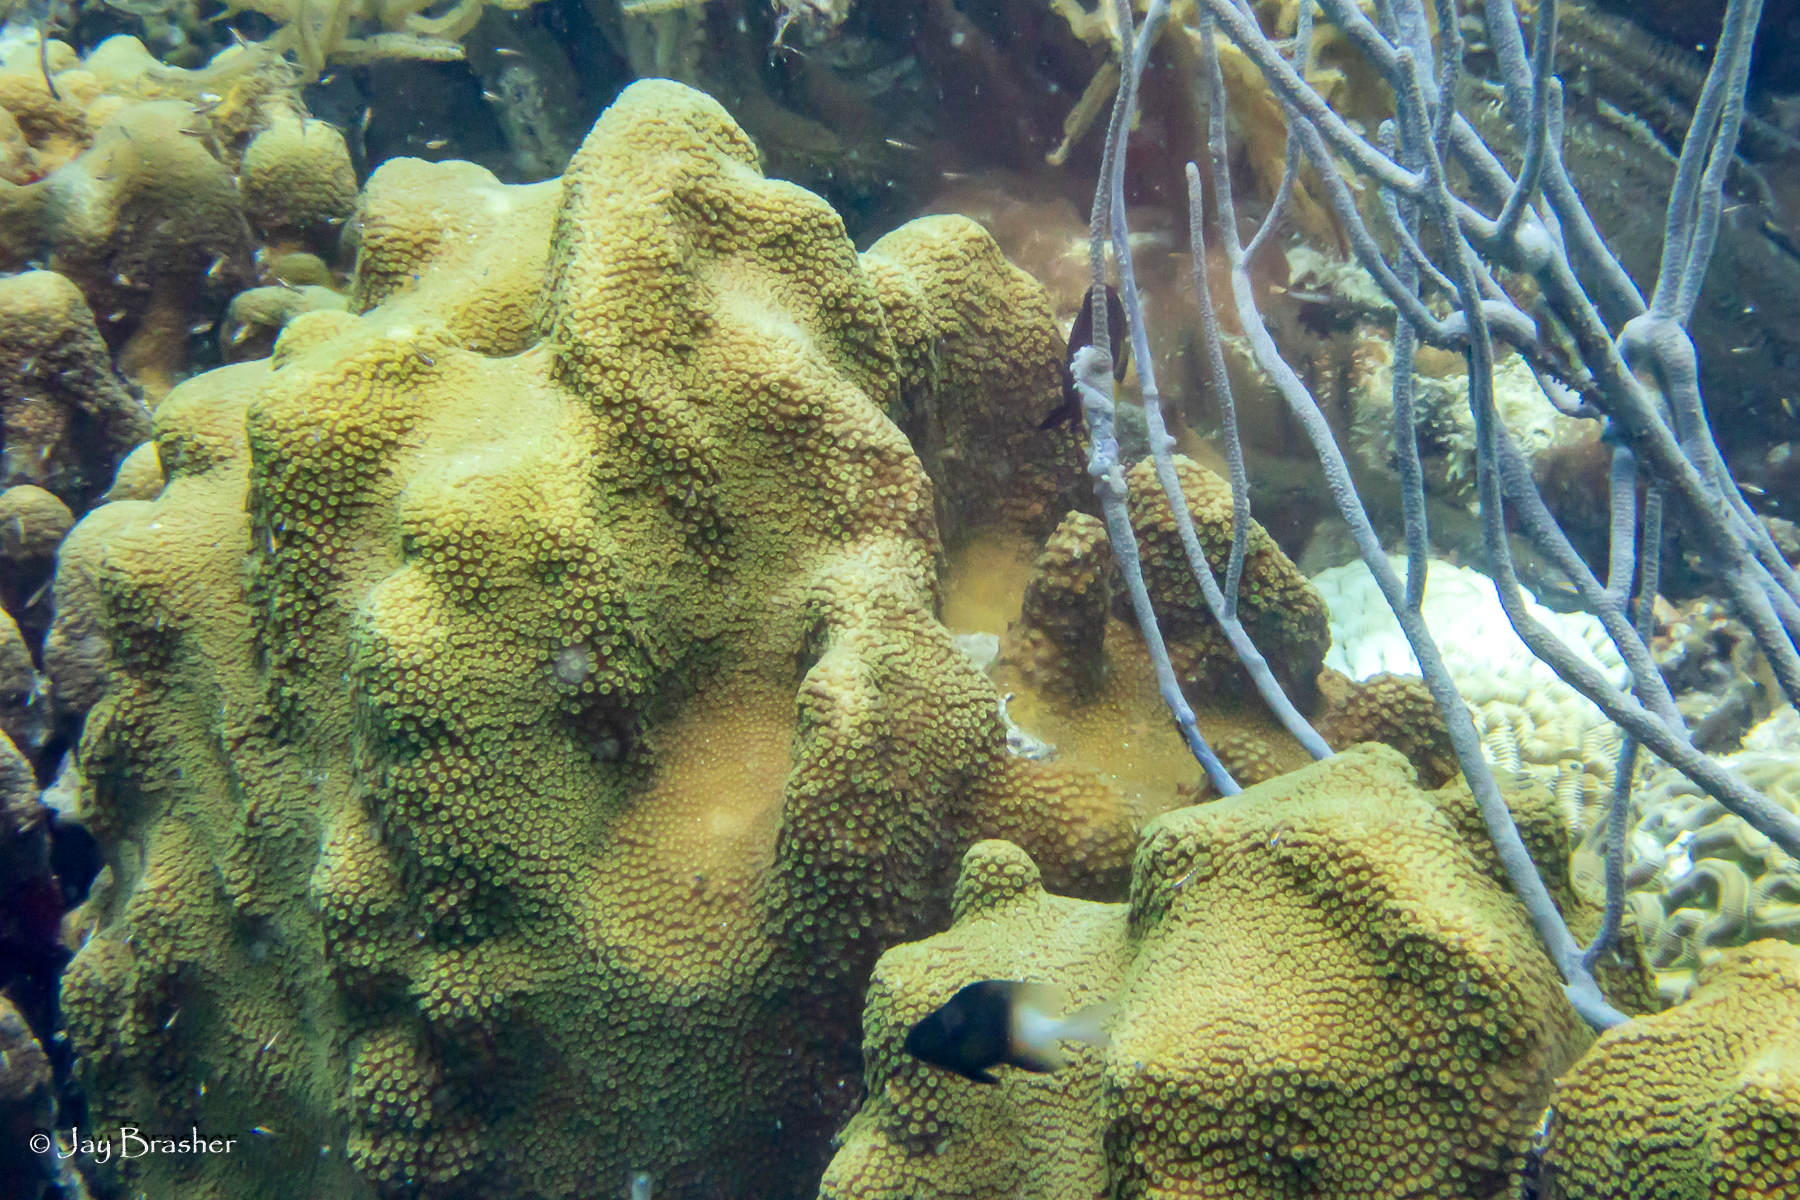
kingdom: Animalia
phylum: Chordata
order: Perciformes
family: Pomacentridae
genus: Stegastes
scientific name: Stegastes partitus
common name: Bicolor damselfish
